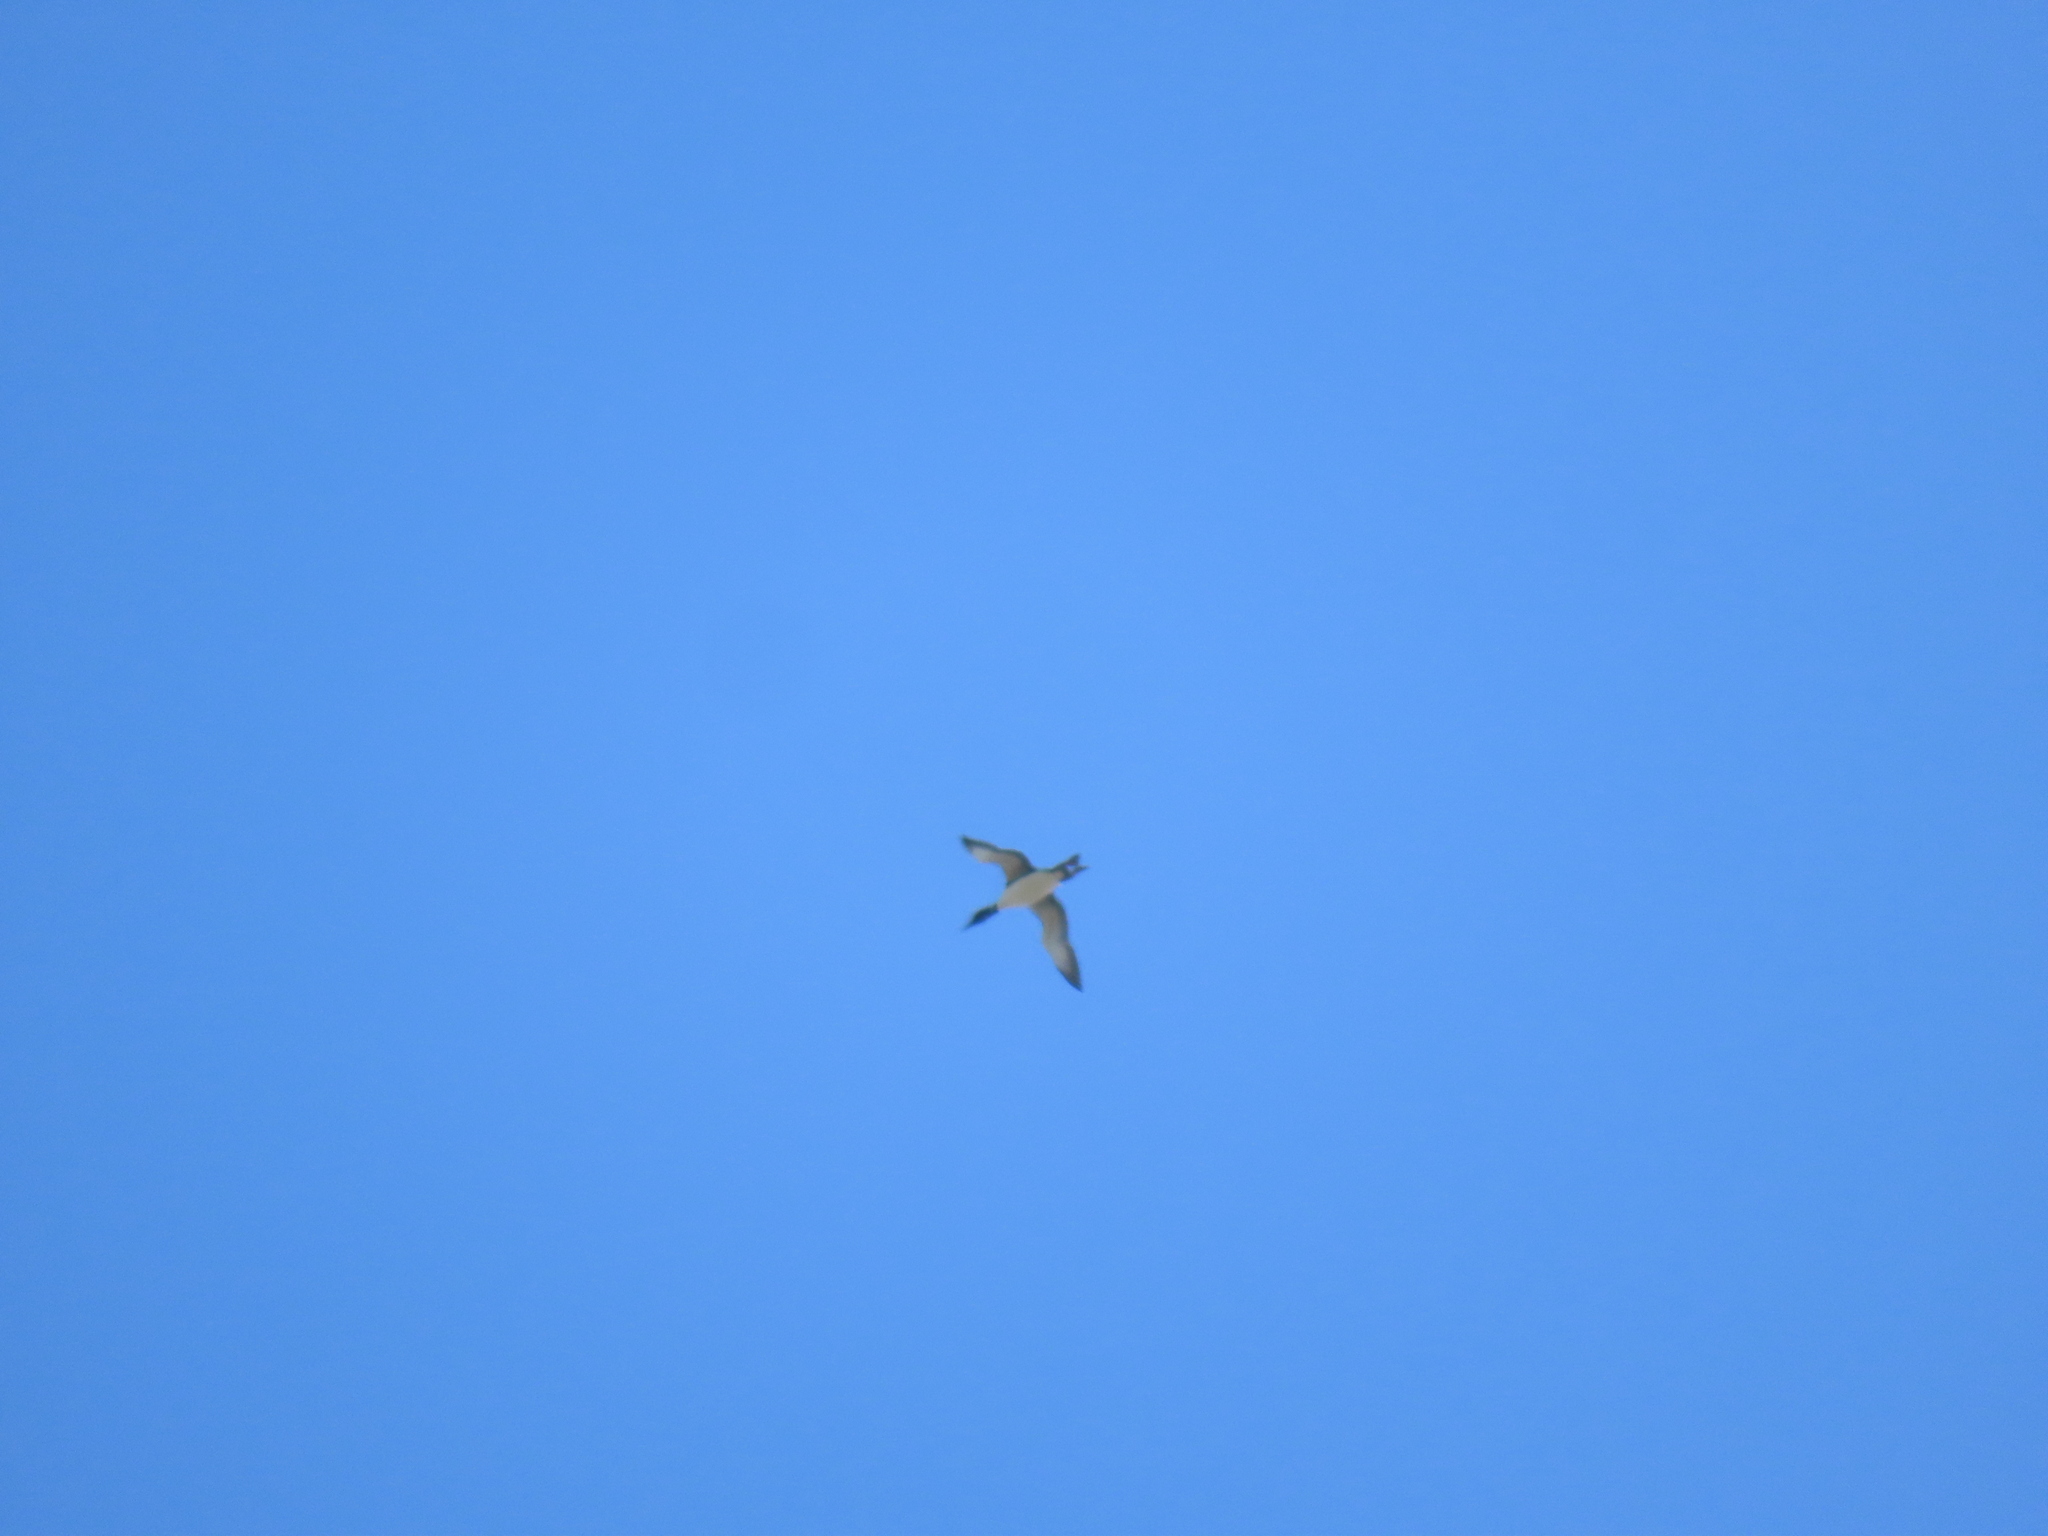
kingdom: Animalia
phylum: Chordata
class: Aves
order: Gaviiformes
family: Gaviidae
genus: Gavia
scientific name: Gavia immer
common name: Common loon
